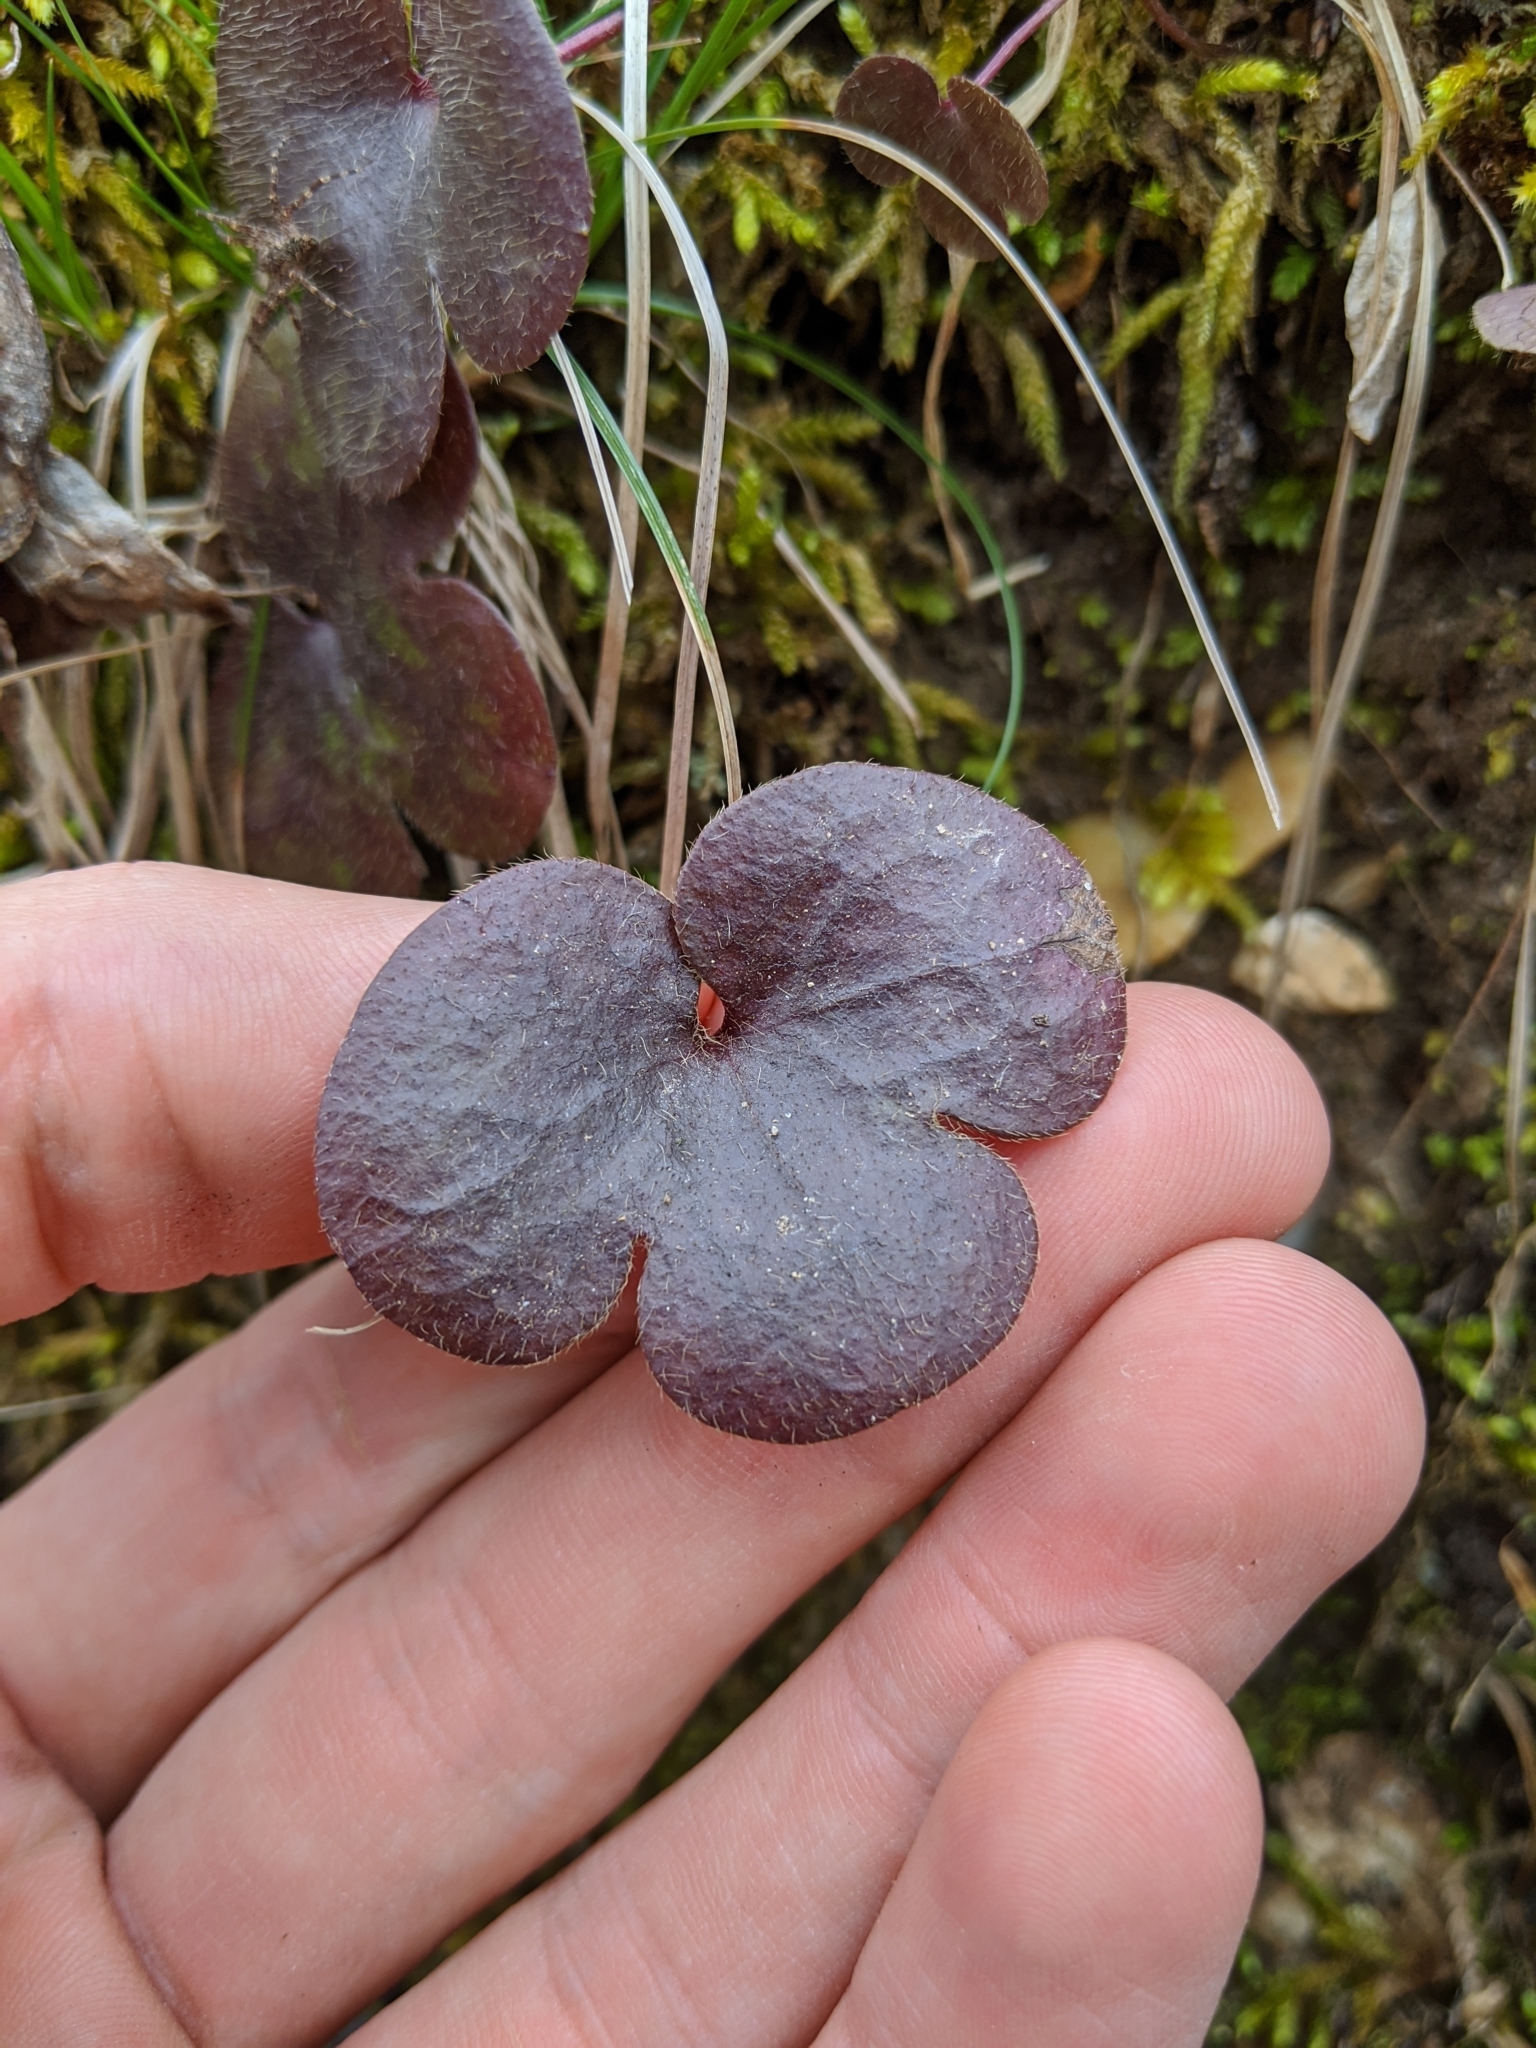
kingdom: Plantae
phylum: Tracheophyta
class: Magnoliopsida
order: Ranunculales
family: Ranunculaceae
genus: Hepatica
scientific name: Hepatica americana
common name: American hepatica
